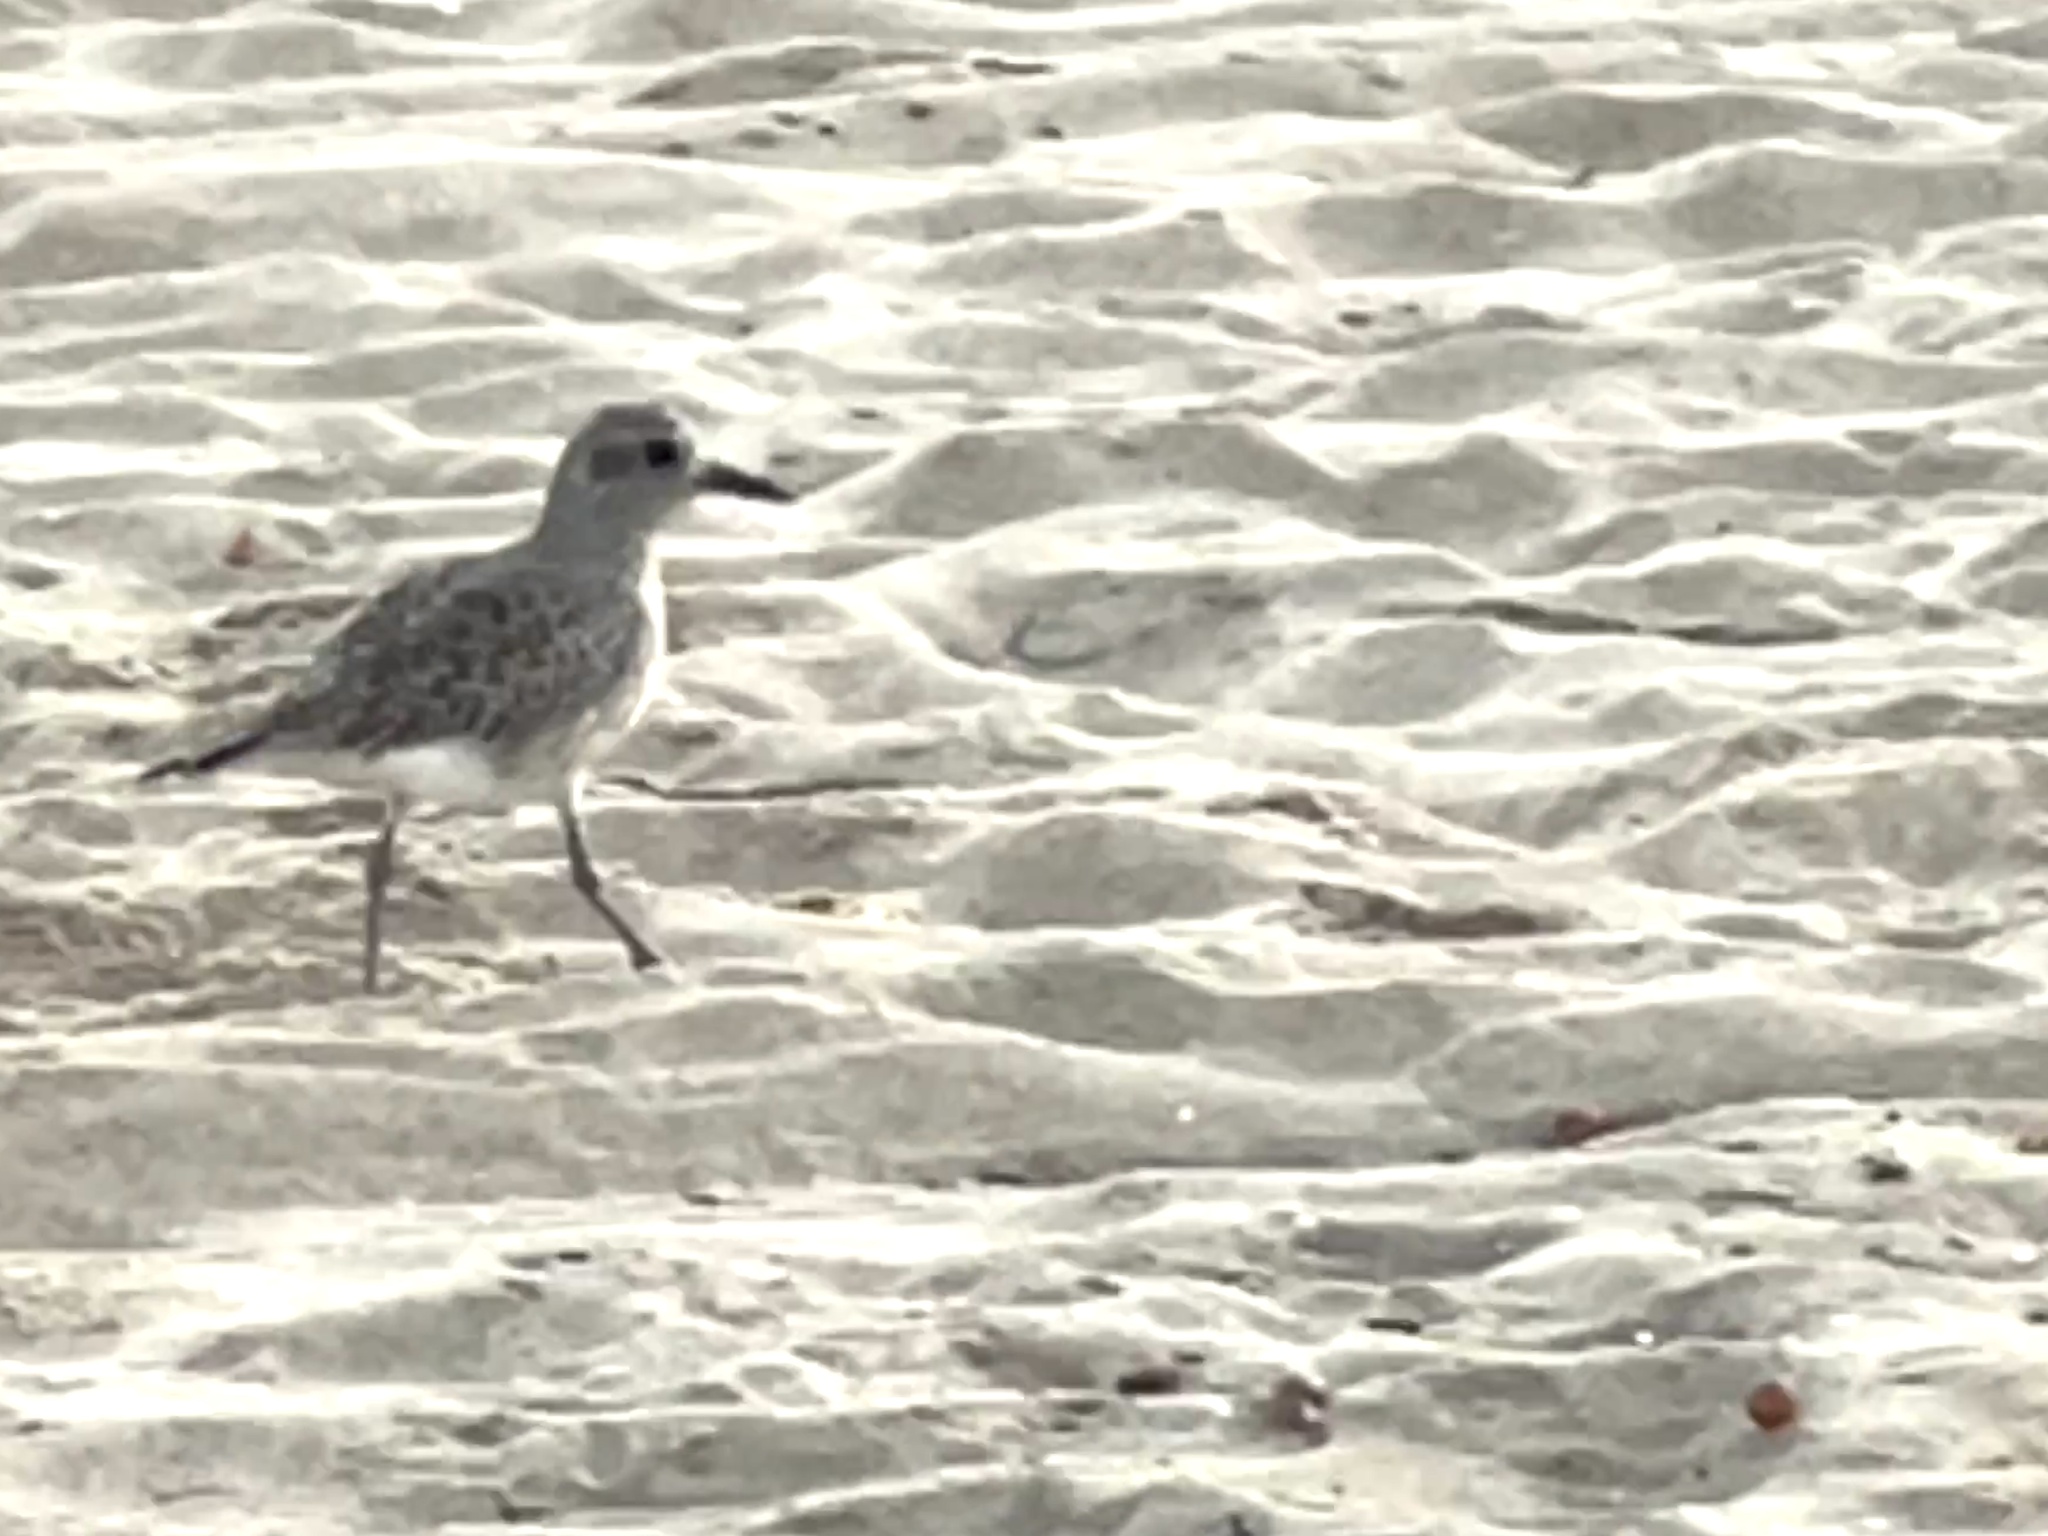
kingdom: Animalia
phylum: Chordata
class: Aves
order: Charadriiformes
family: Charadriidae
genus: Pluvialis
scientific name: Pluvialis squatarola
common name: Grey plover
